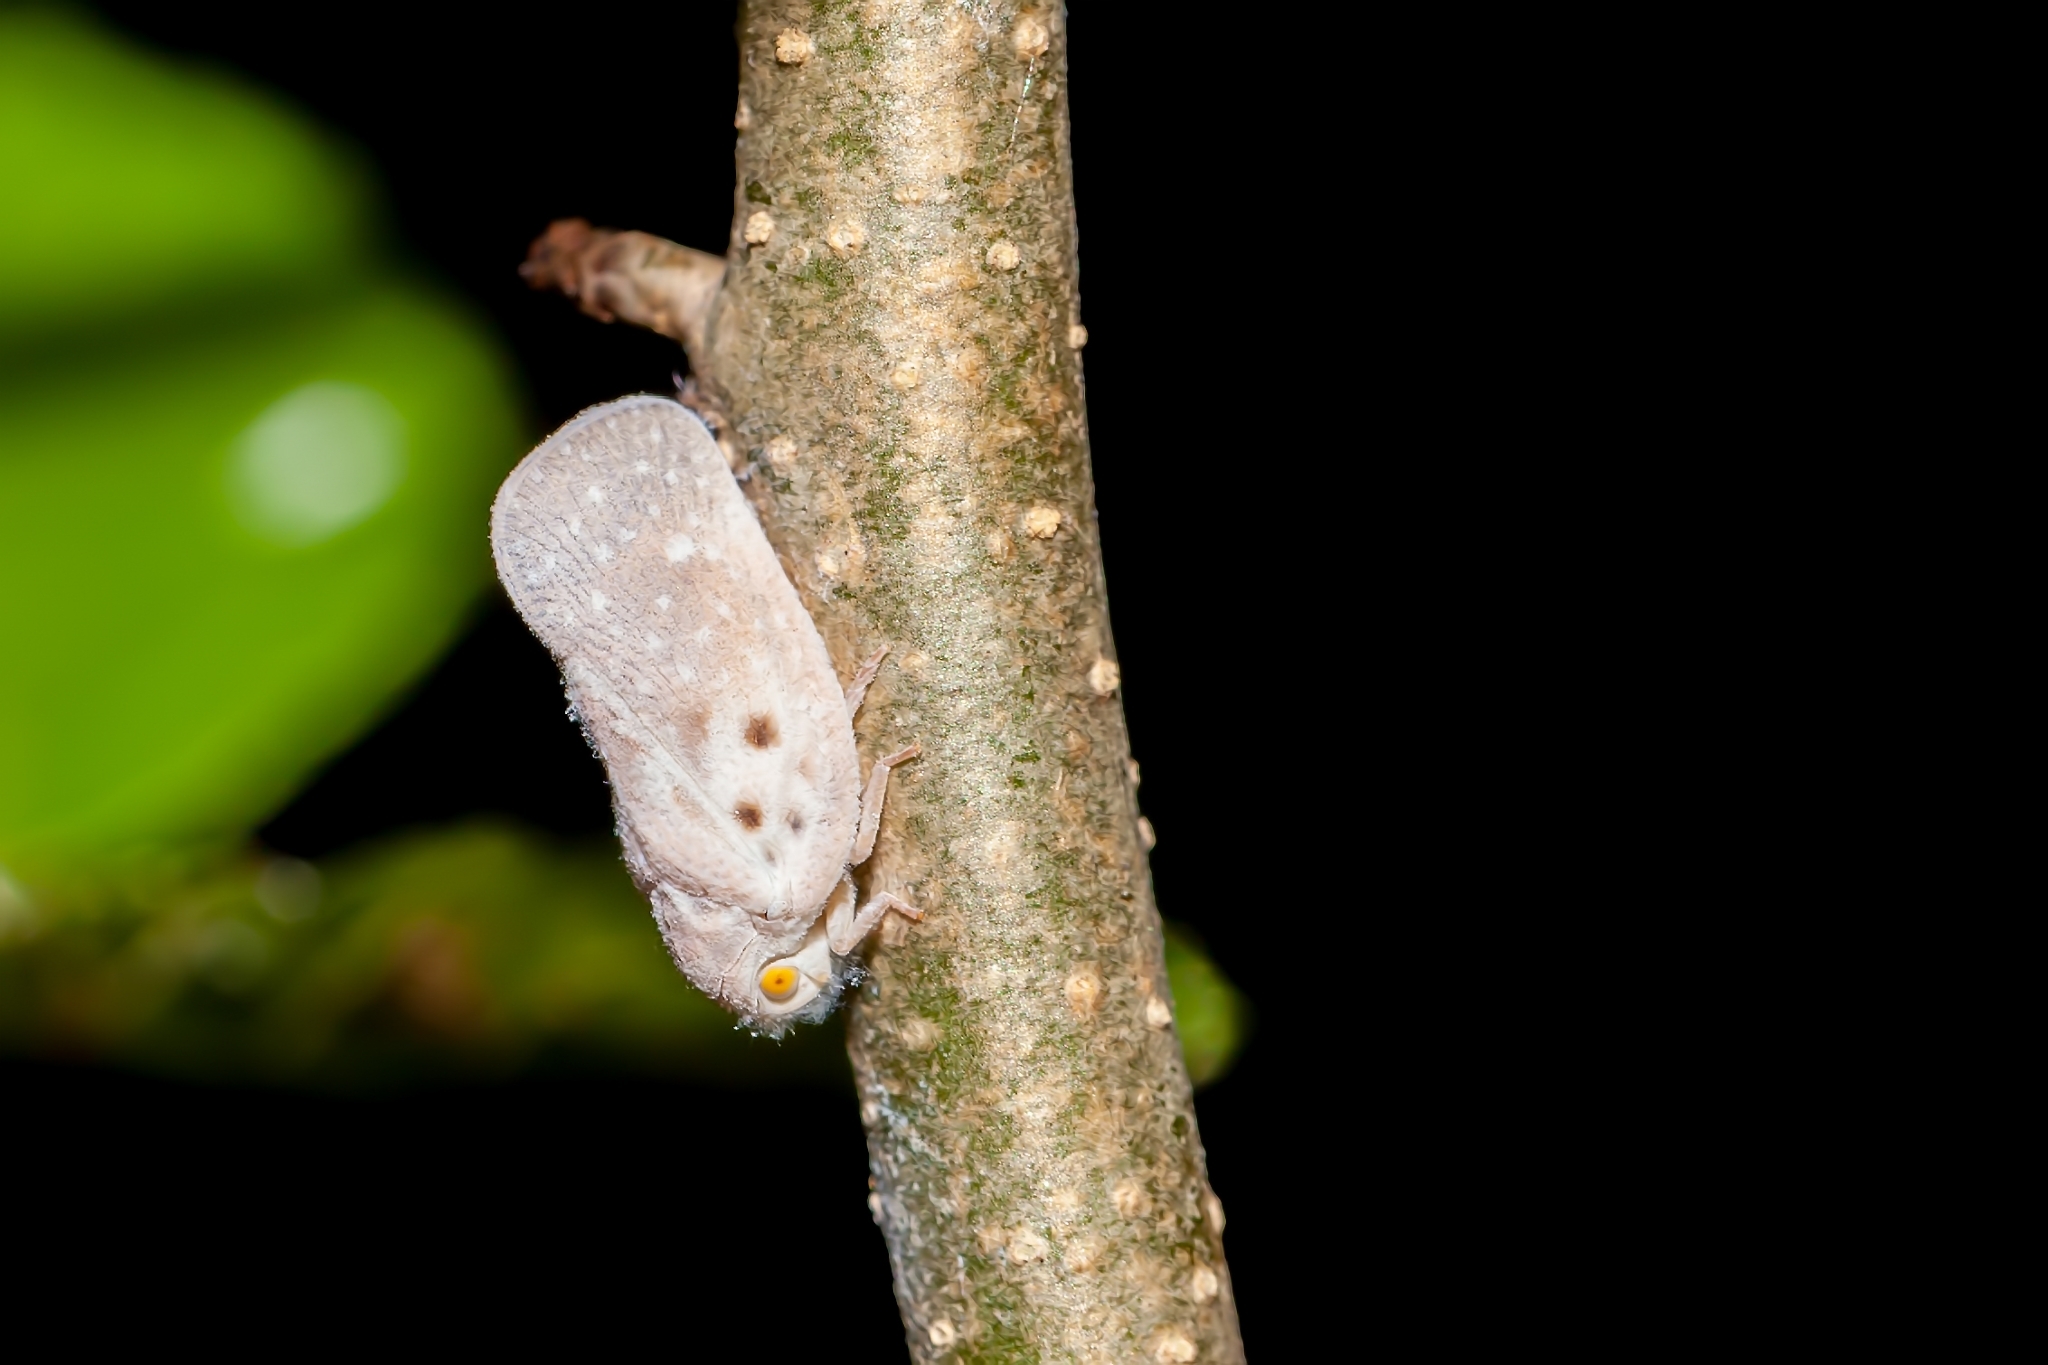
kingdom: Animalia
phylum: Arthropoda
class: Insecta
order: Hemiptera
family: Flatidae
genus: Metcalfa
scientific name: Metcalfa pruinosa
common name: Citrus flatid planthopper
